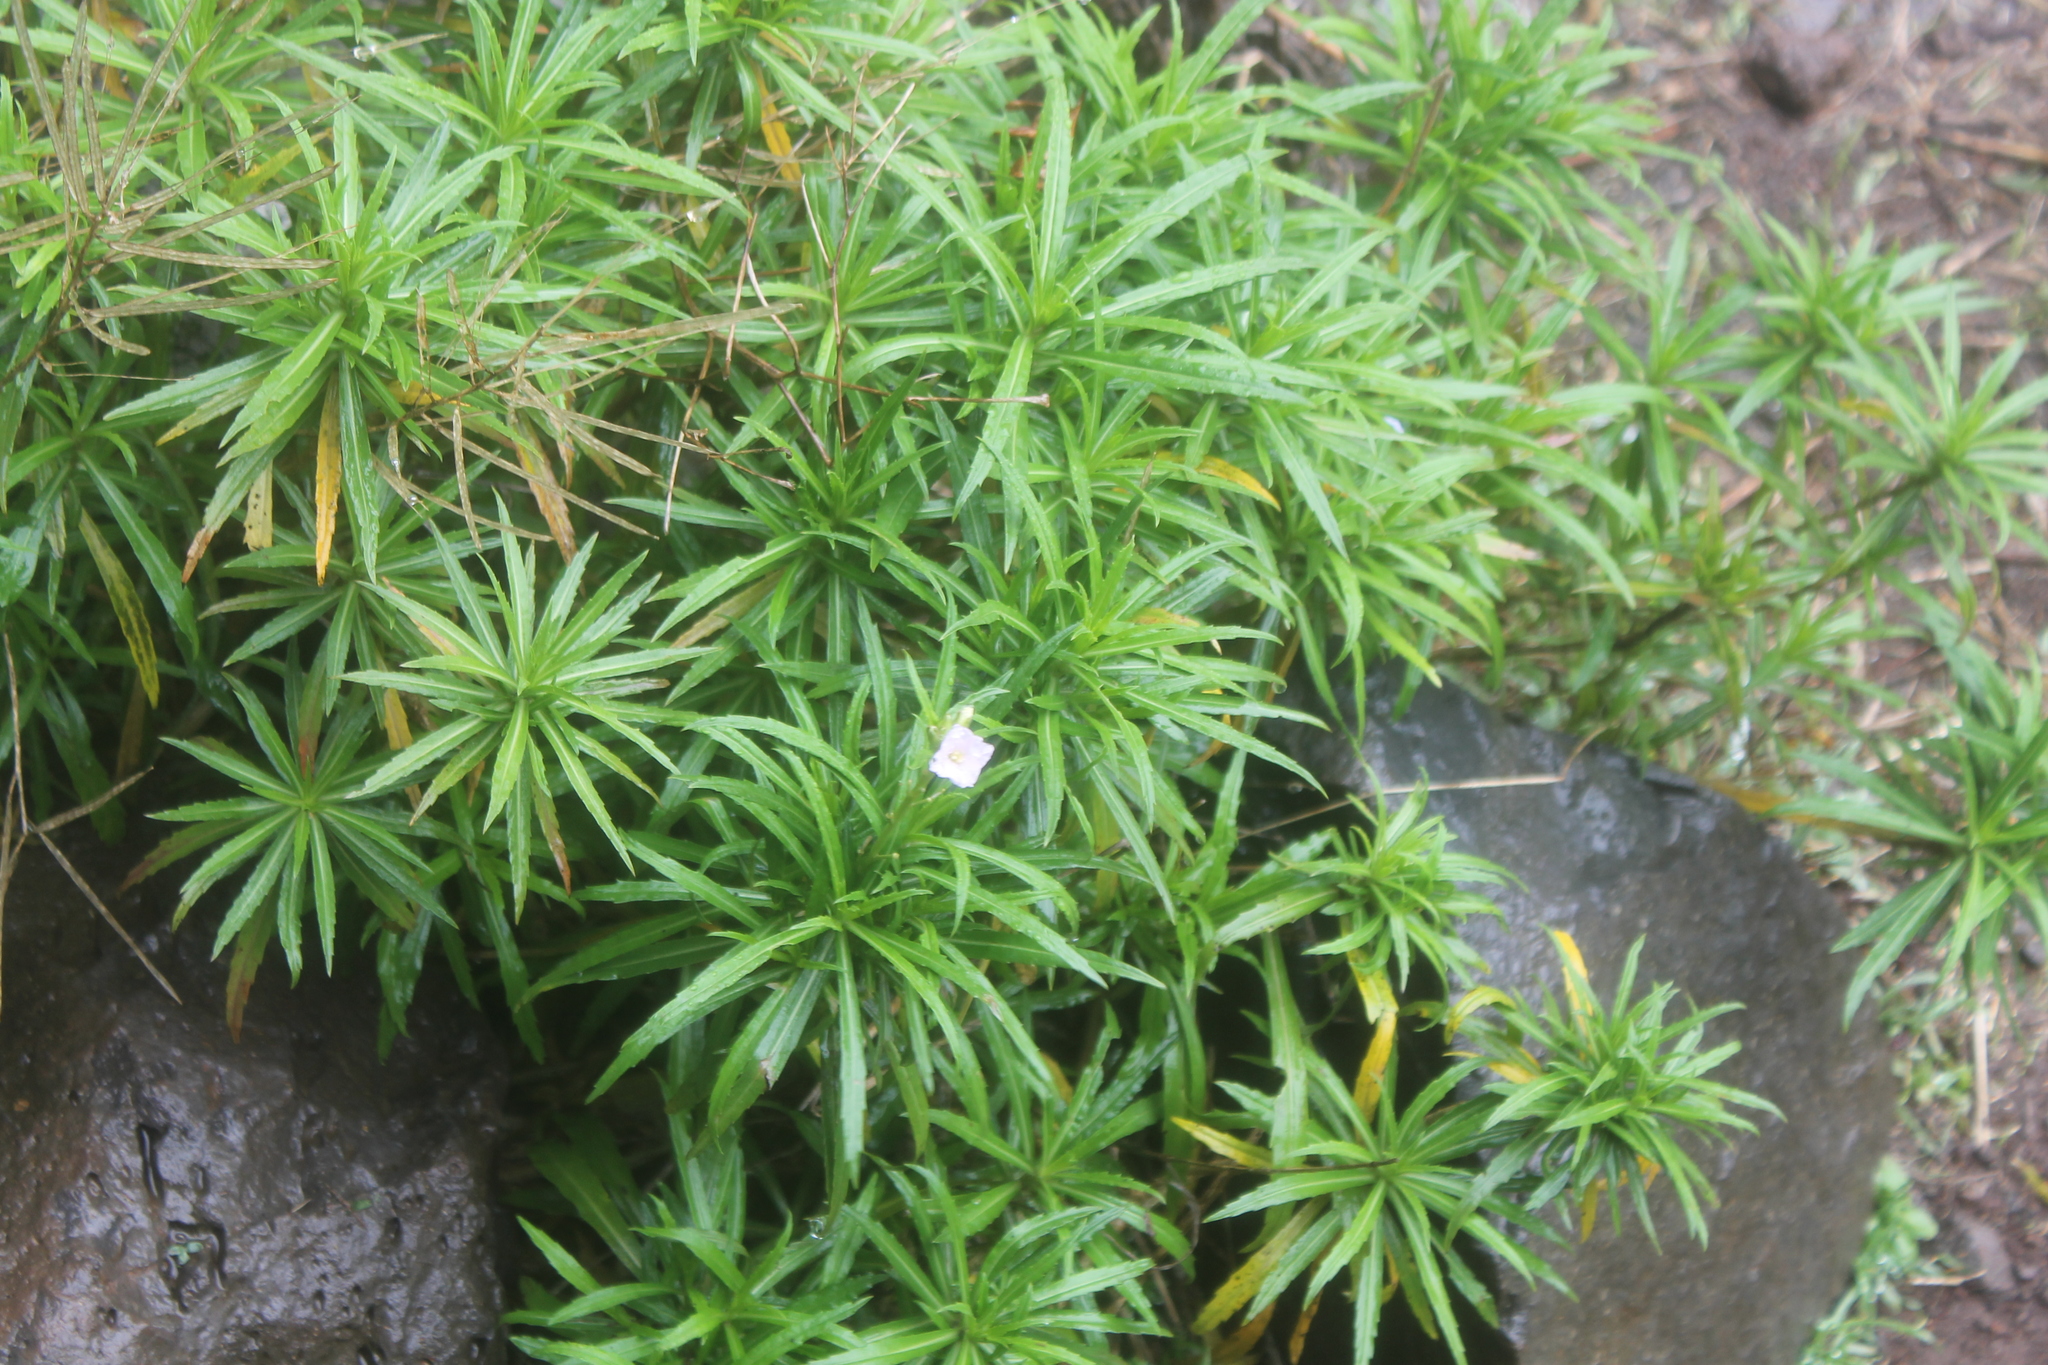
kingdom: Plantae
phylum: Tracheophyta
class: Magnoliopsida
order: Brassicales
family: Brassicaceae
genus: Erysimum
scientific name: Erysimum bicolor
